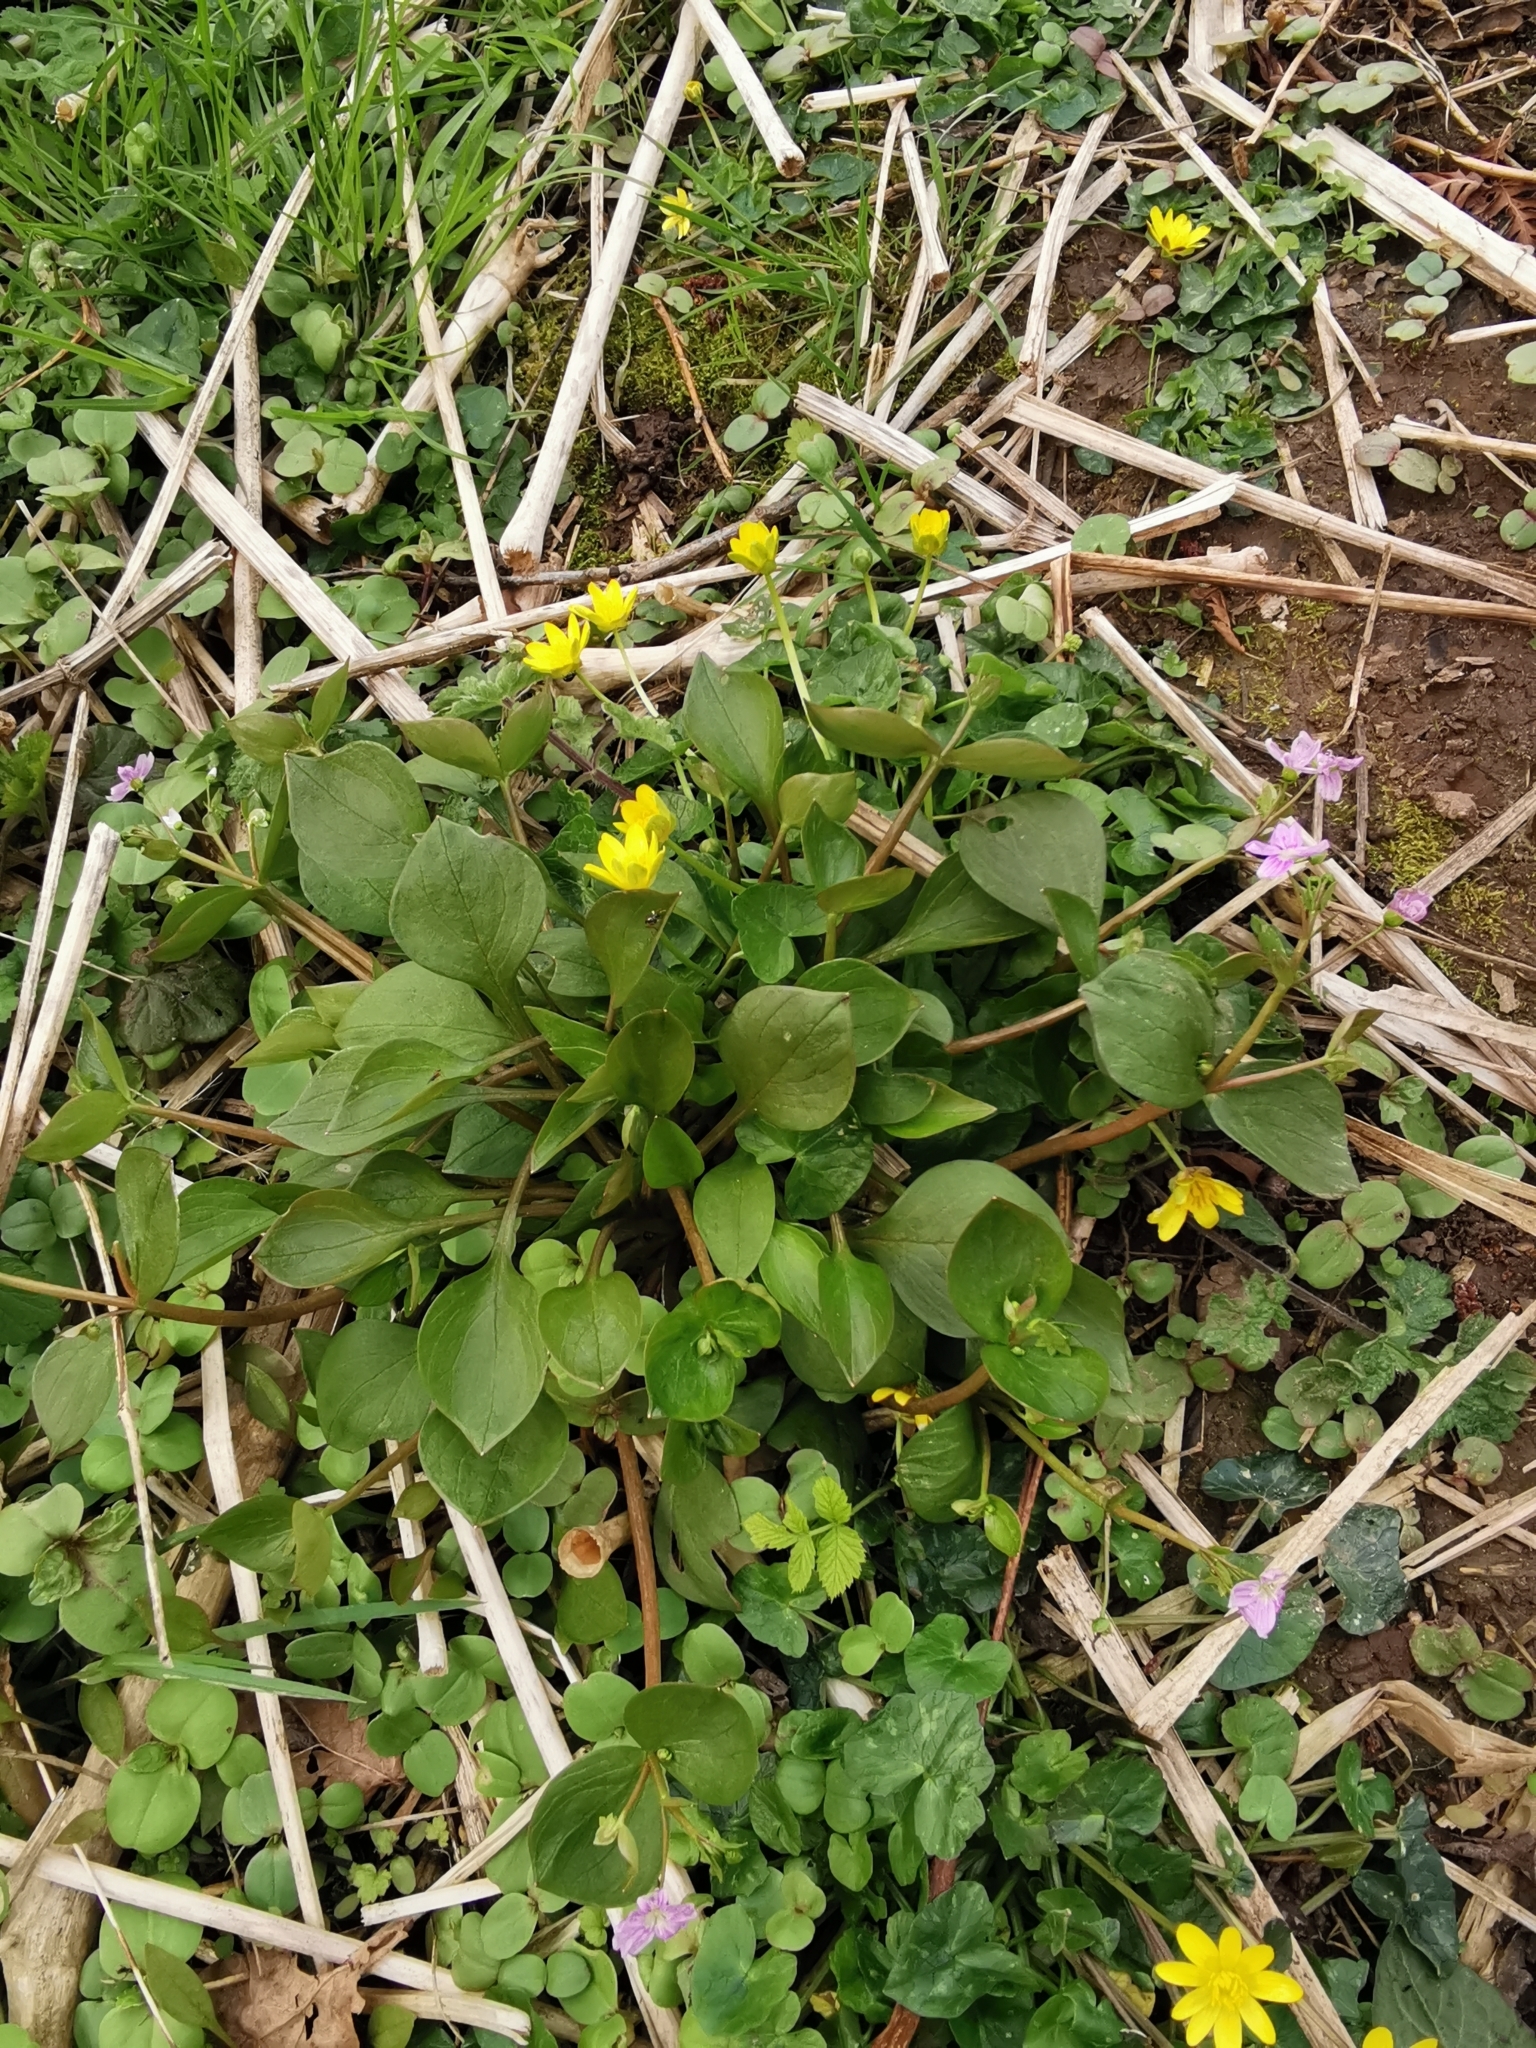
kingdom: Plantae
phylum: Tracheophyta
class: Magnoliopsida
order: Caryophyllales
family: Montiaceae
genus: Claytonia
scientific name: Claytonia sibirica
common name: Pink purslane
